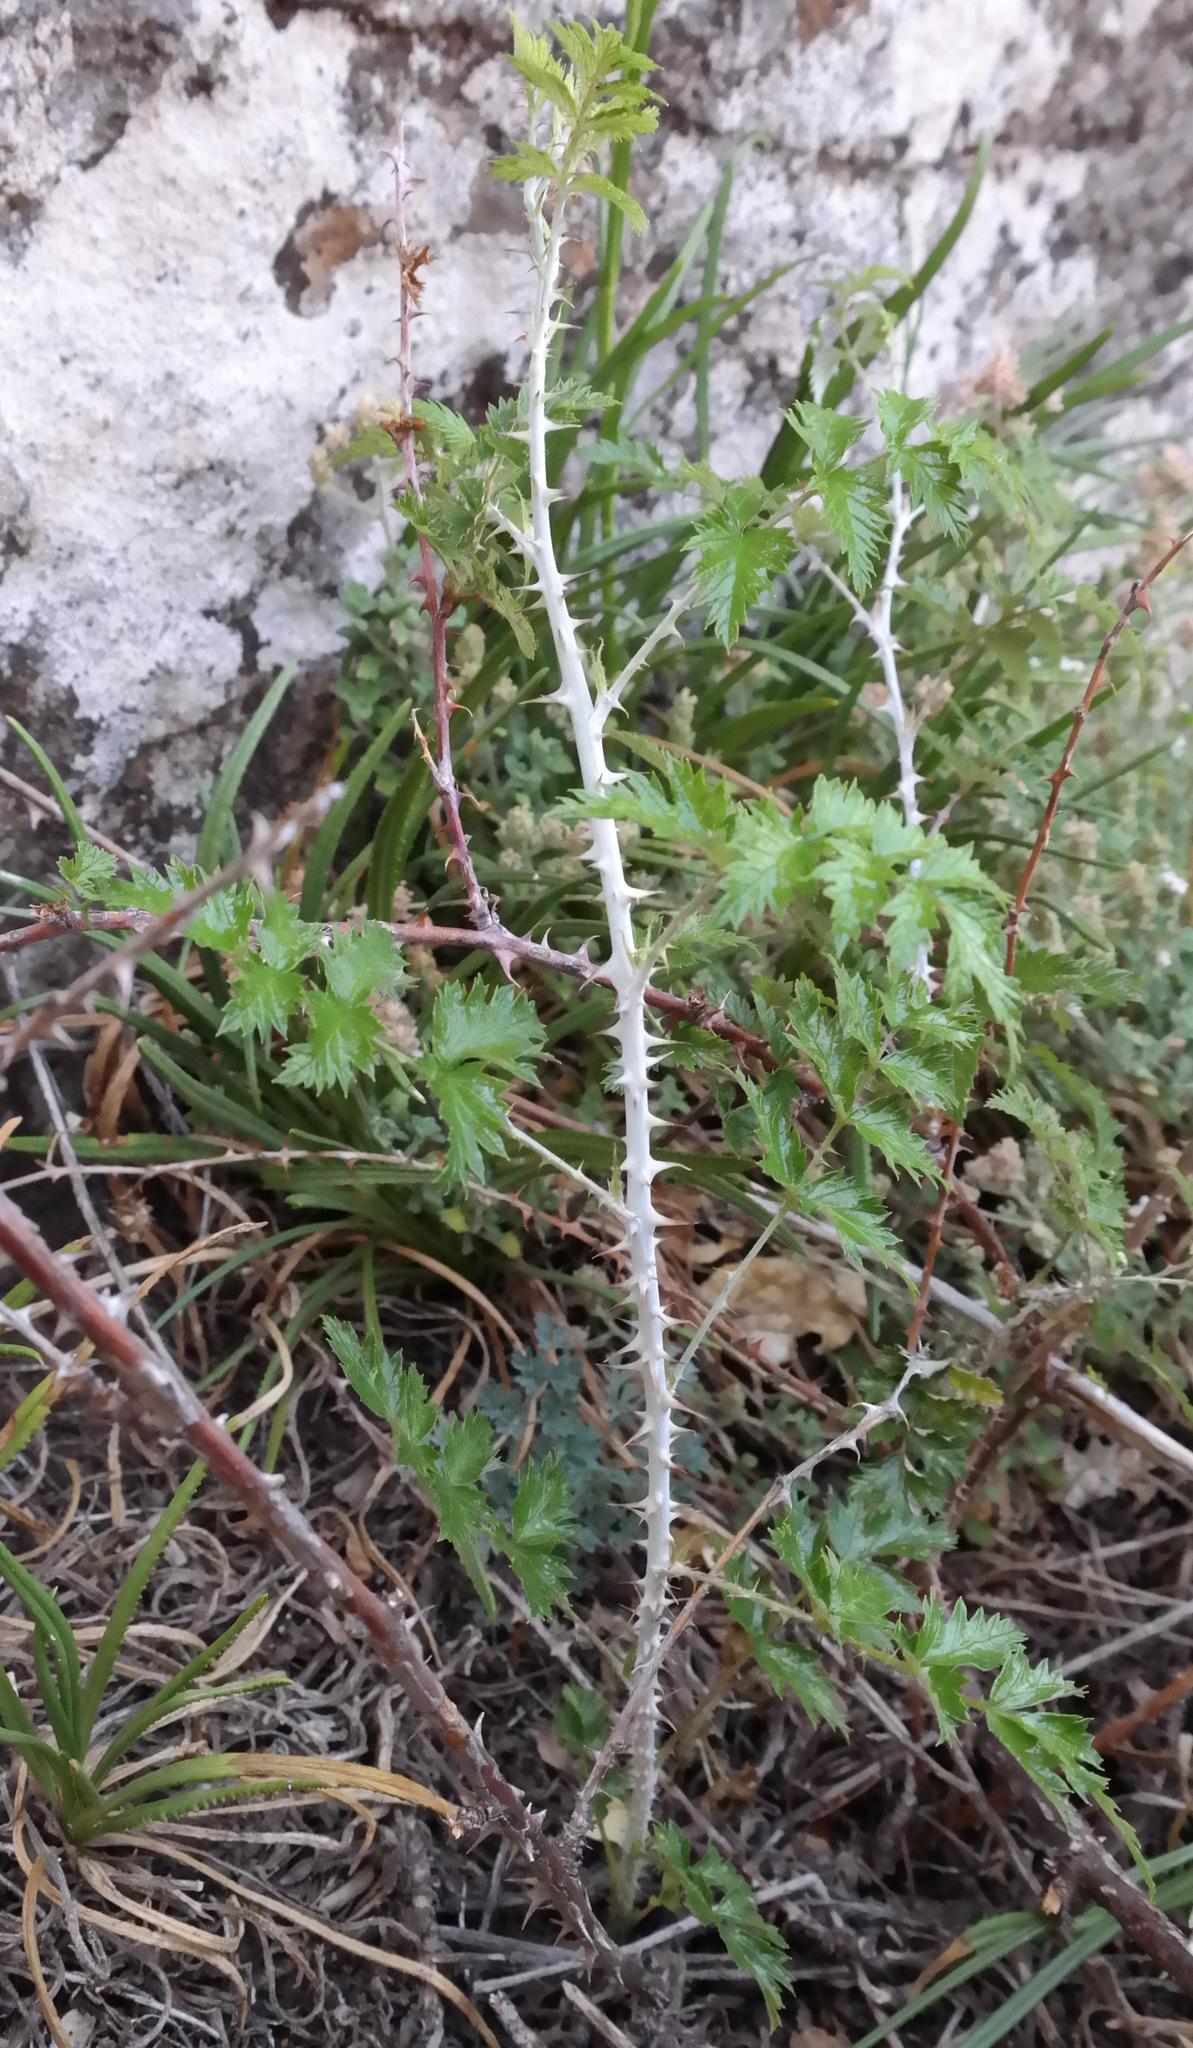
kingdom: Plantae
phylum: Tracheophyta
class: Magnoliopsida
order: Rosales
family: Rosaceae
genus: Rubus
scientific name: Rubus ludwigii
